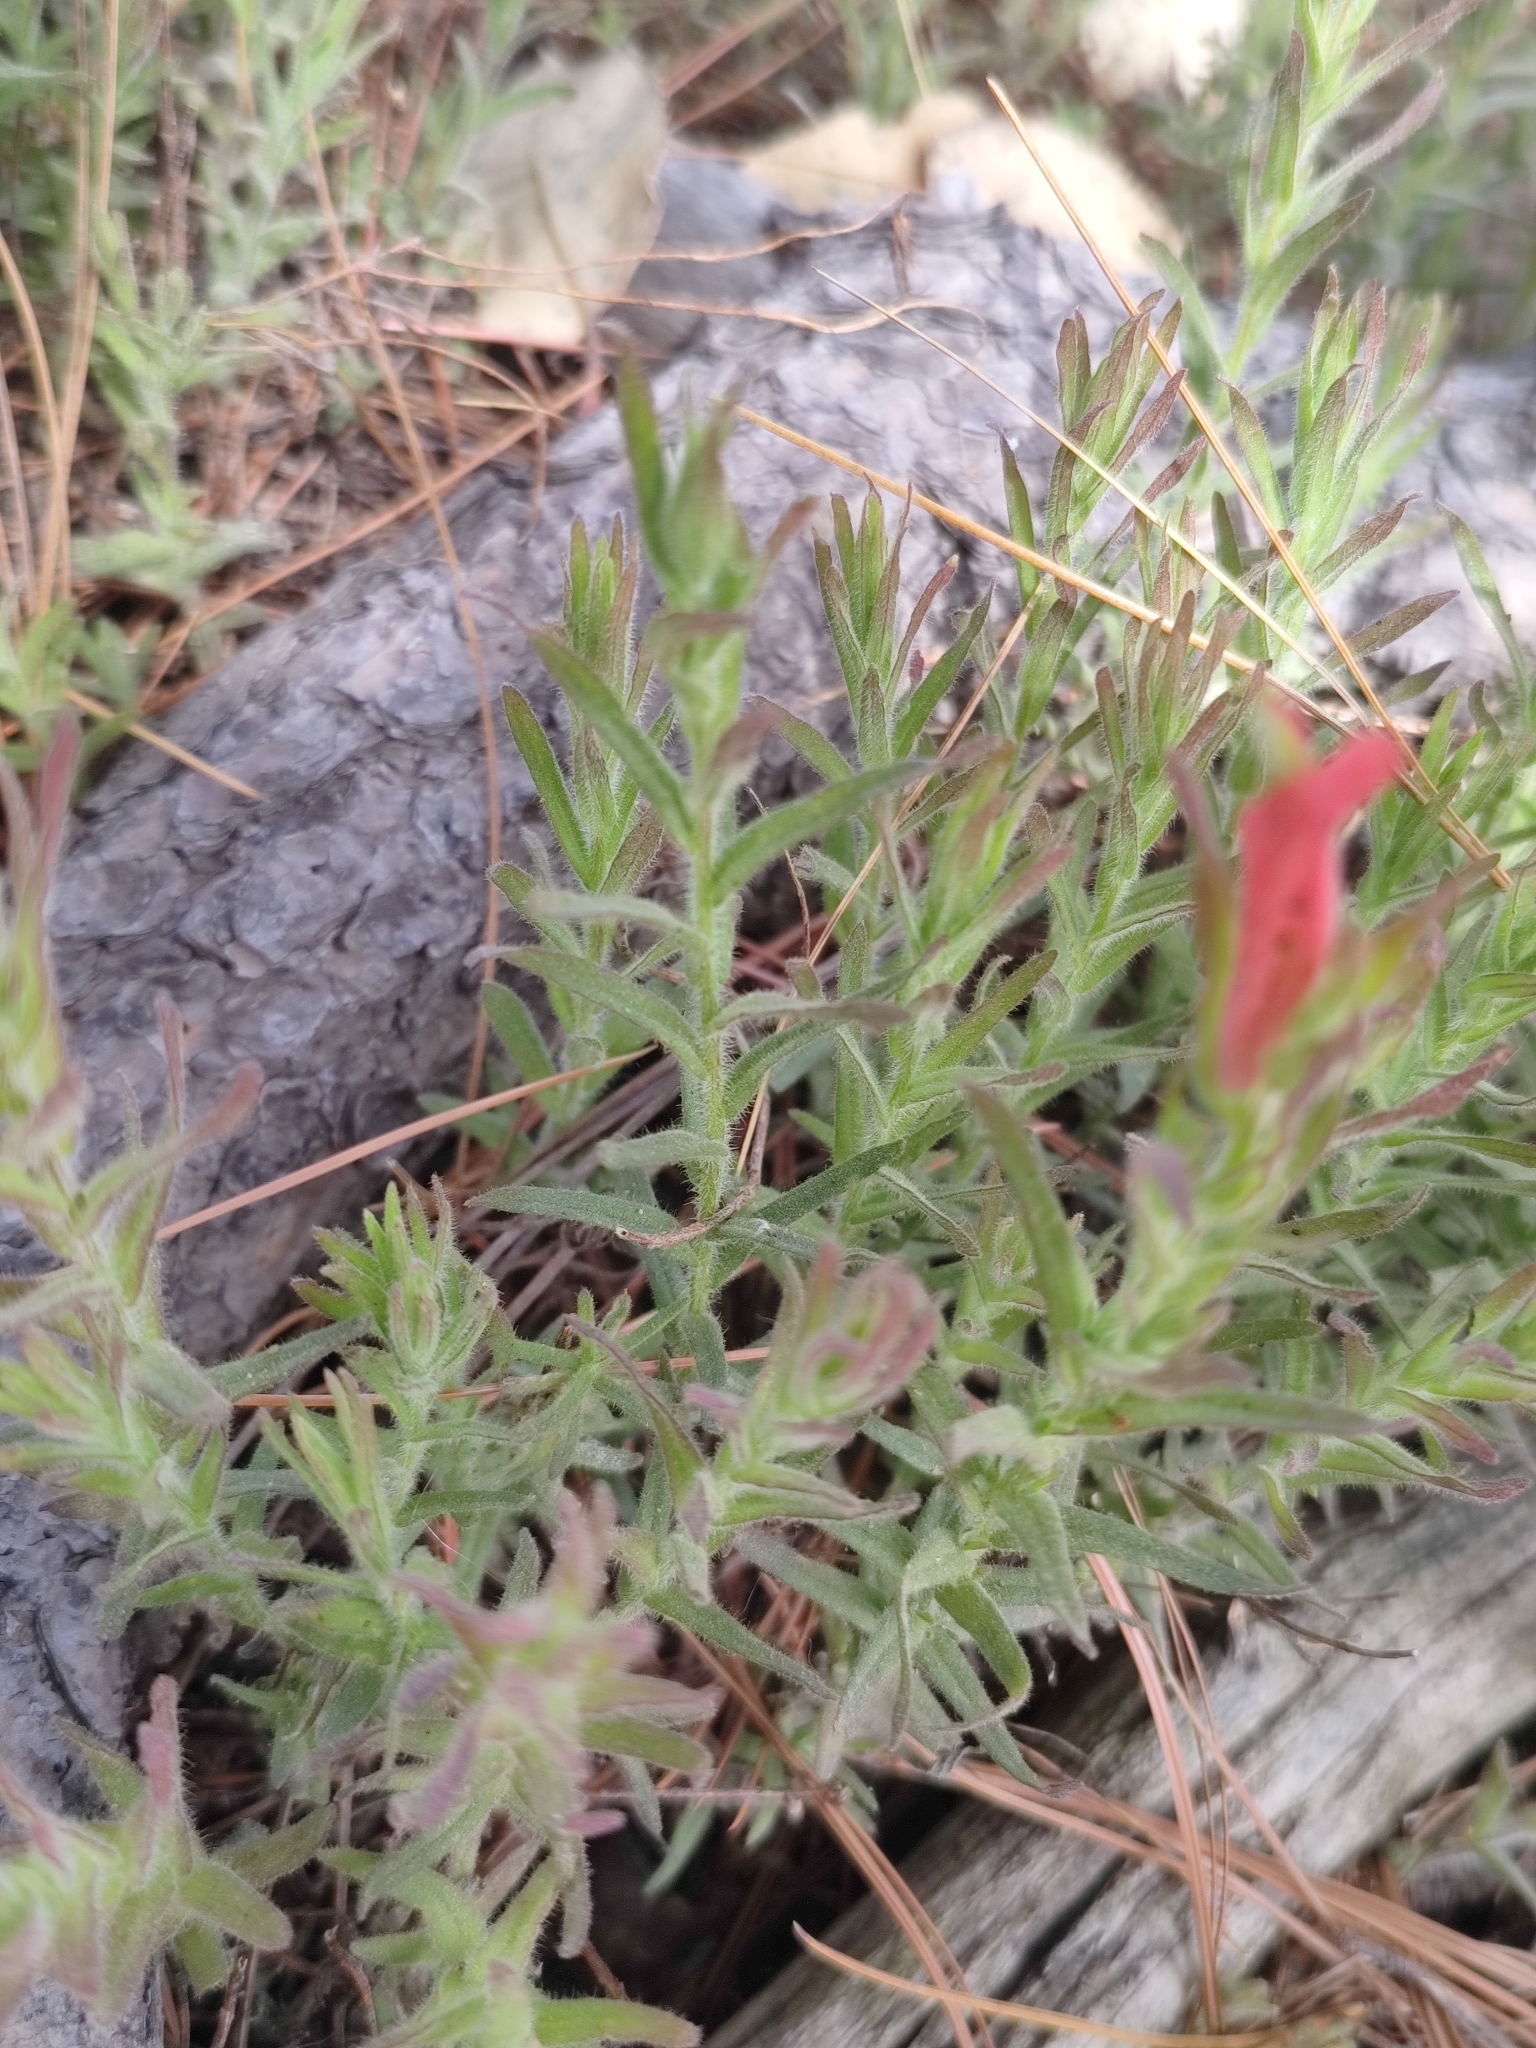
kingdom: Plantae
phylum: Tracheophyta
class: Magnoliopsida
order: Lamiales
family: Orobanchaceae
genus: Castilleja
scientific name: Castilleja rhizomata
